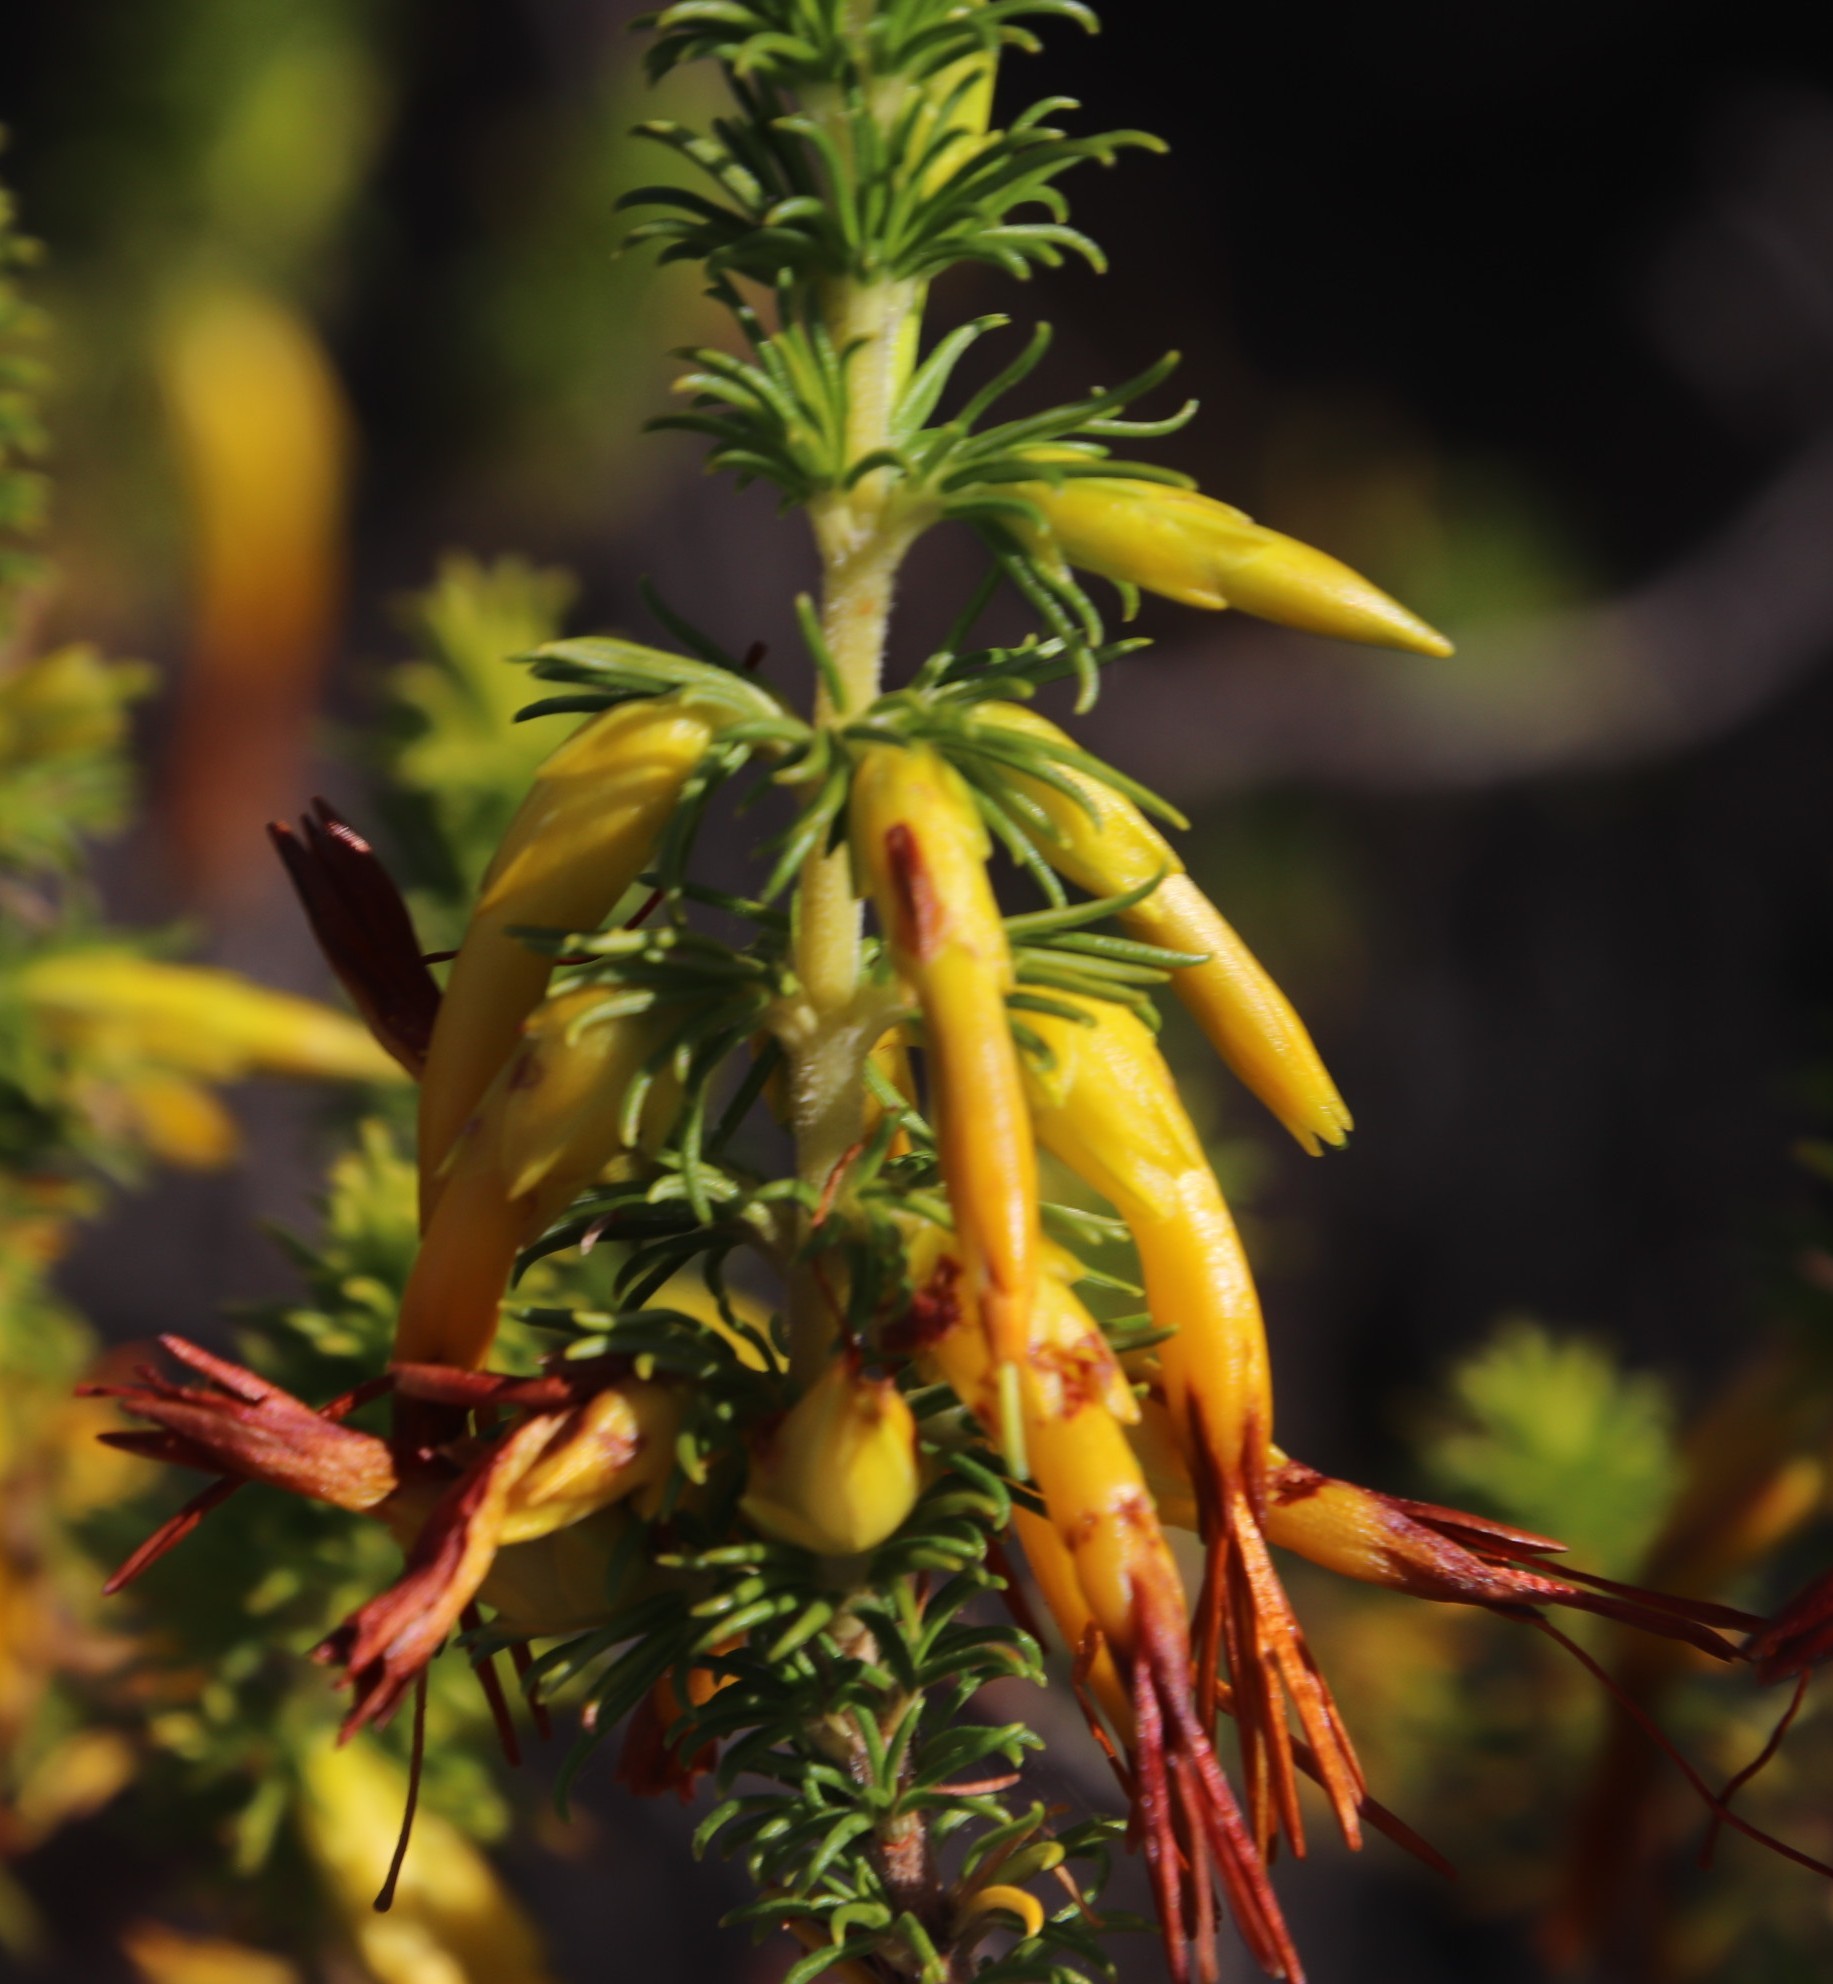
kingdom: Plantae
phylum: Tracheophyta
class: Magnoliopsida
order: Ericales
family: Ericaceae
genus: Erica
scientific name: Erica coccinea
